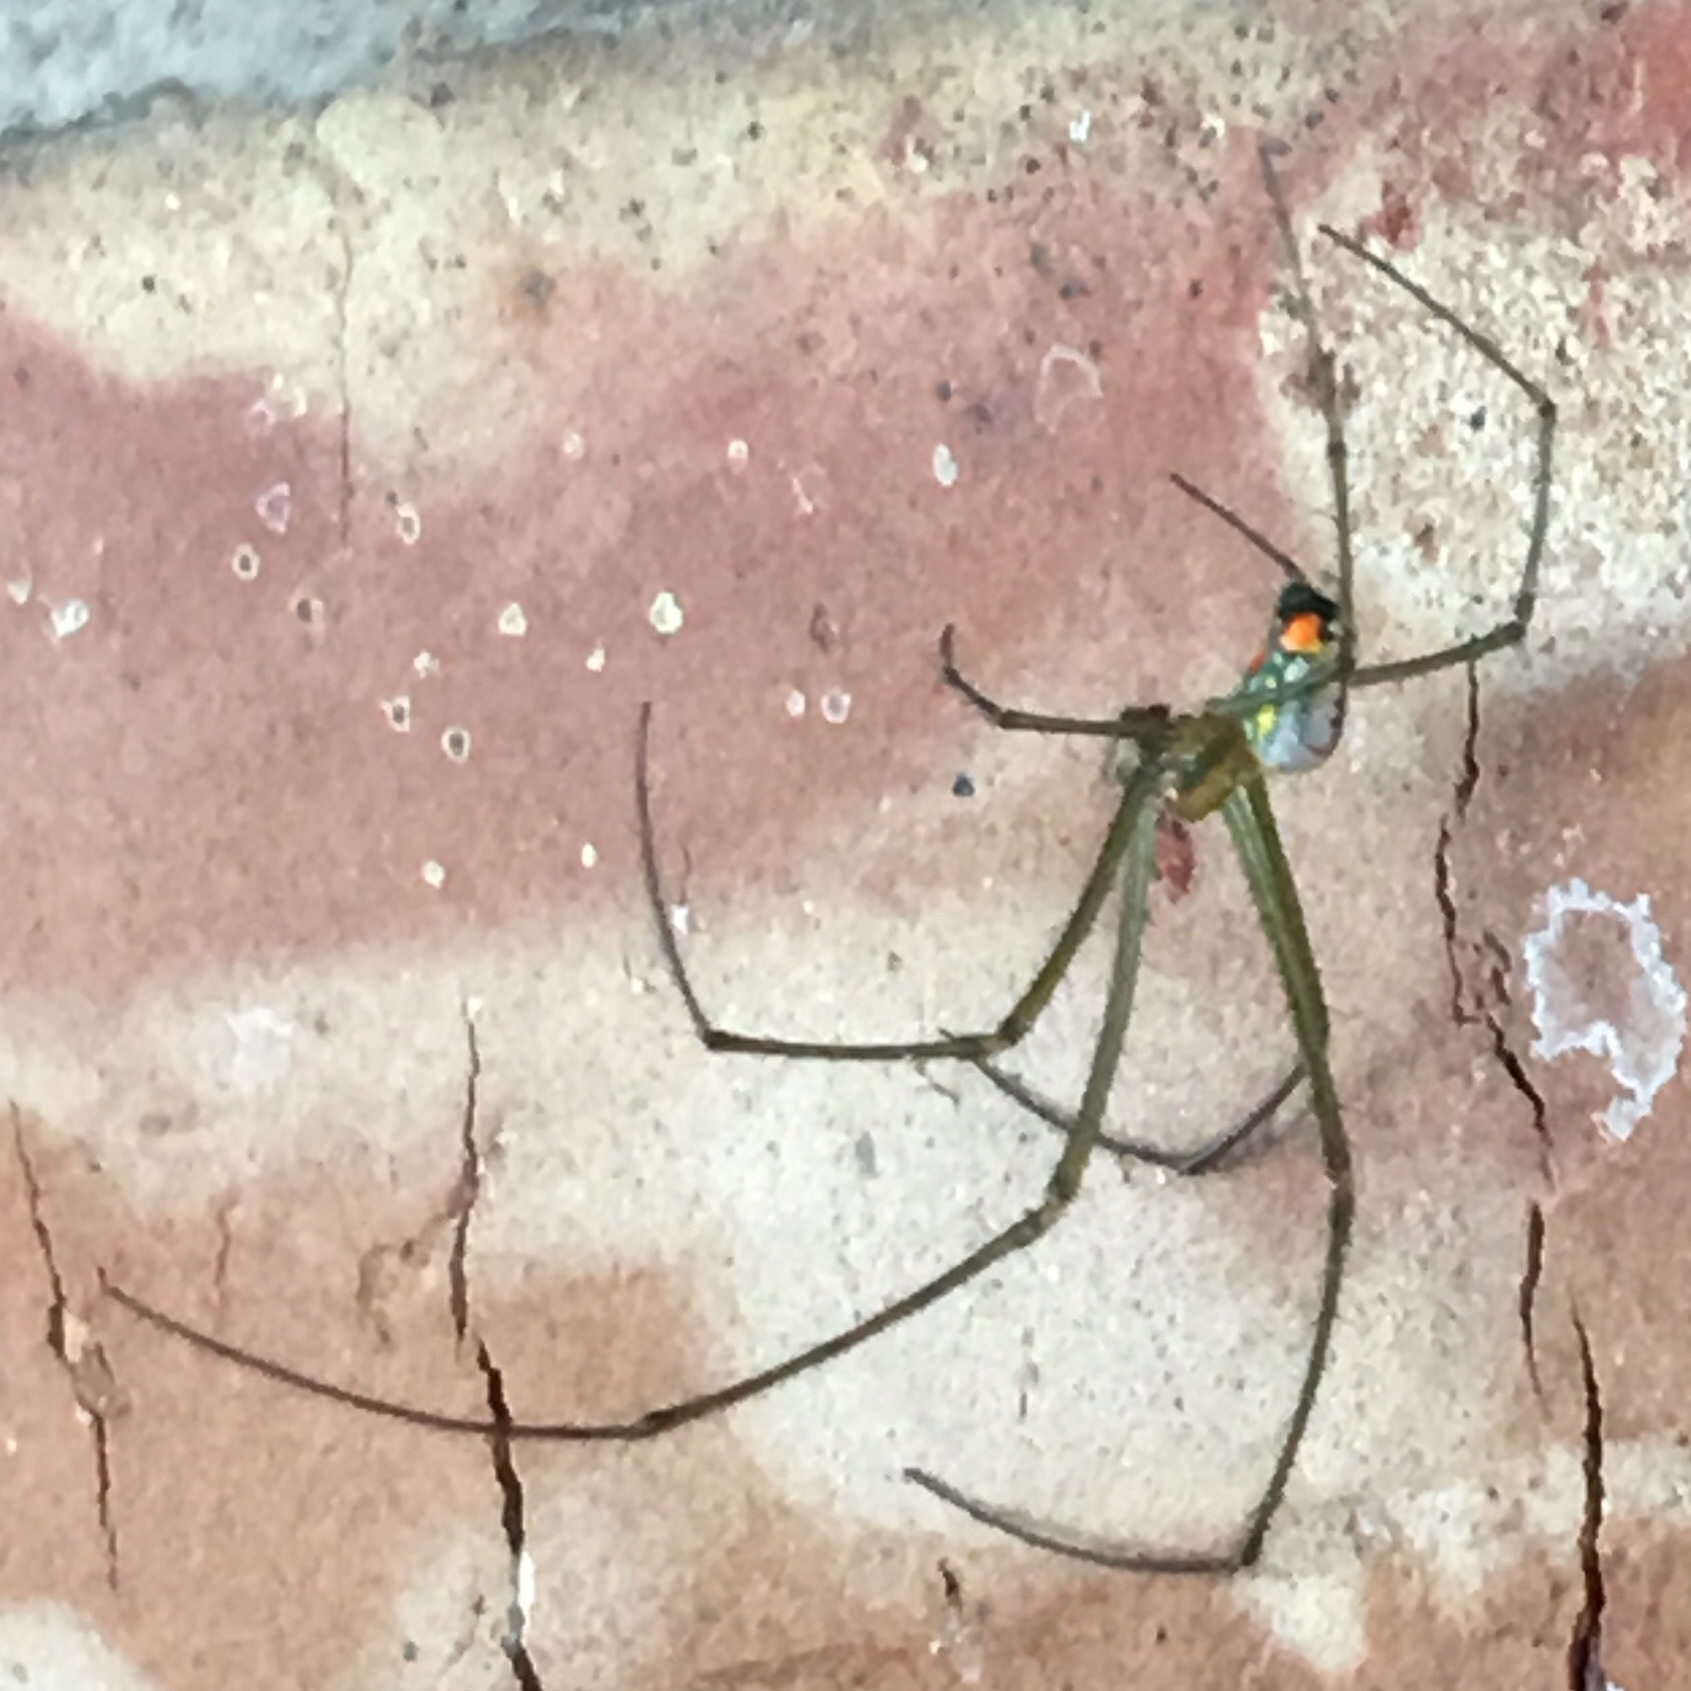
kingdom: Animalia
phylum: Arthropoda
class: Arachnida
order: Araneae
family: Tetragnathidae
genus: Leucauge
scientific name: Leucauge argyrobapta
